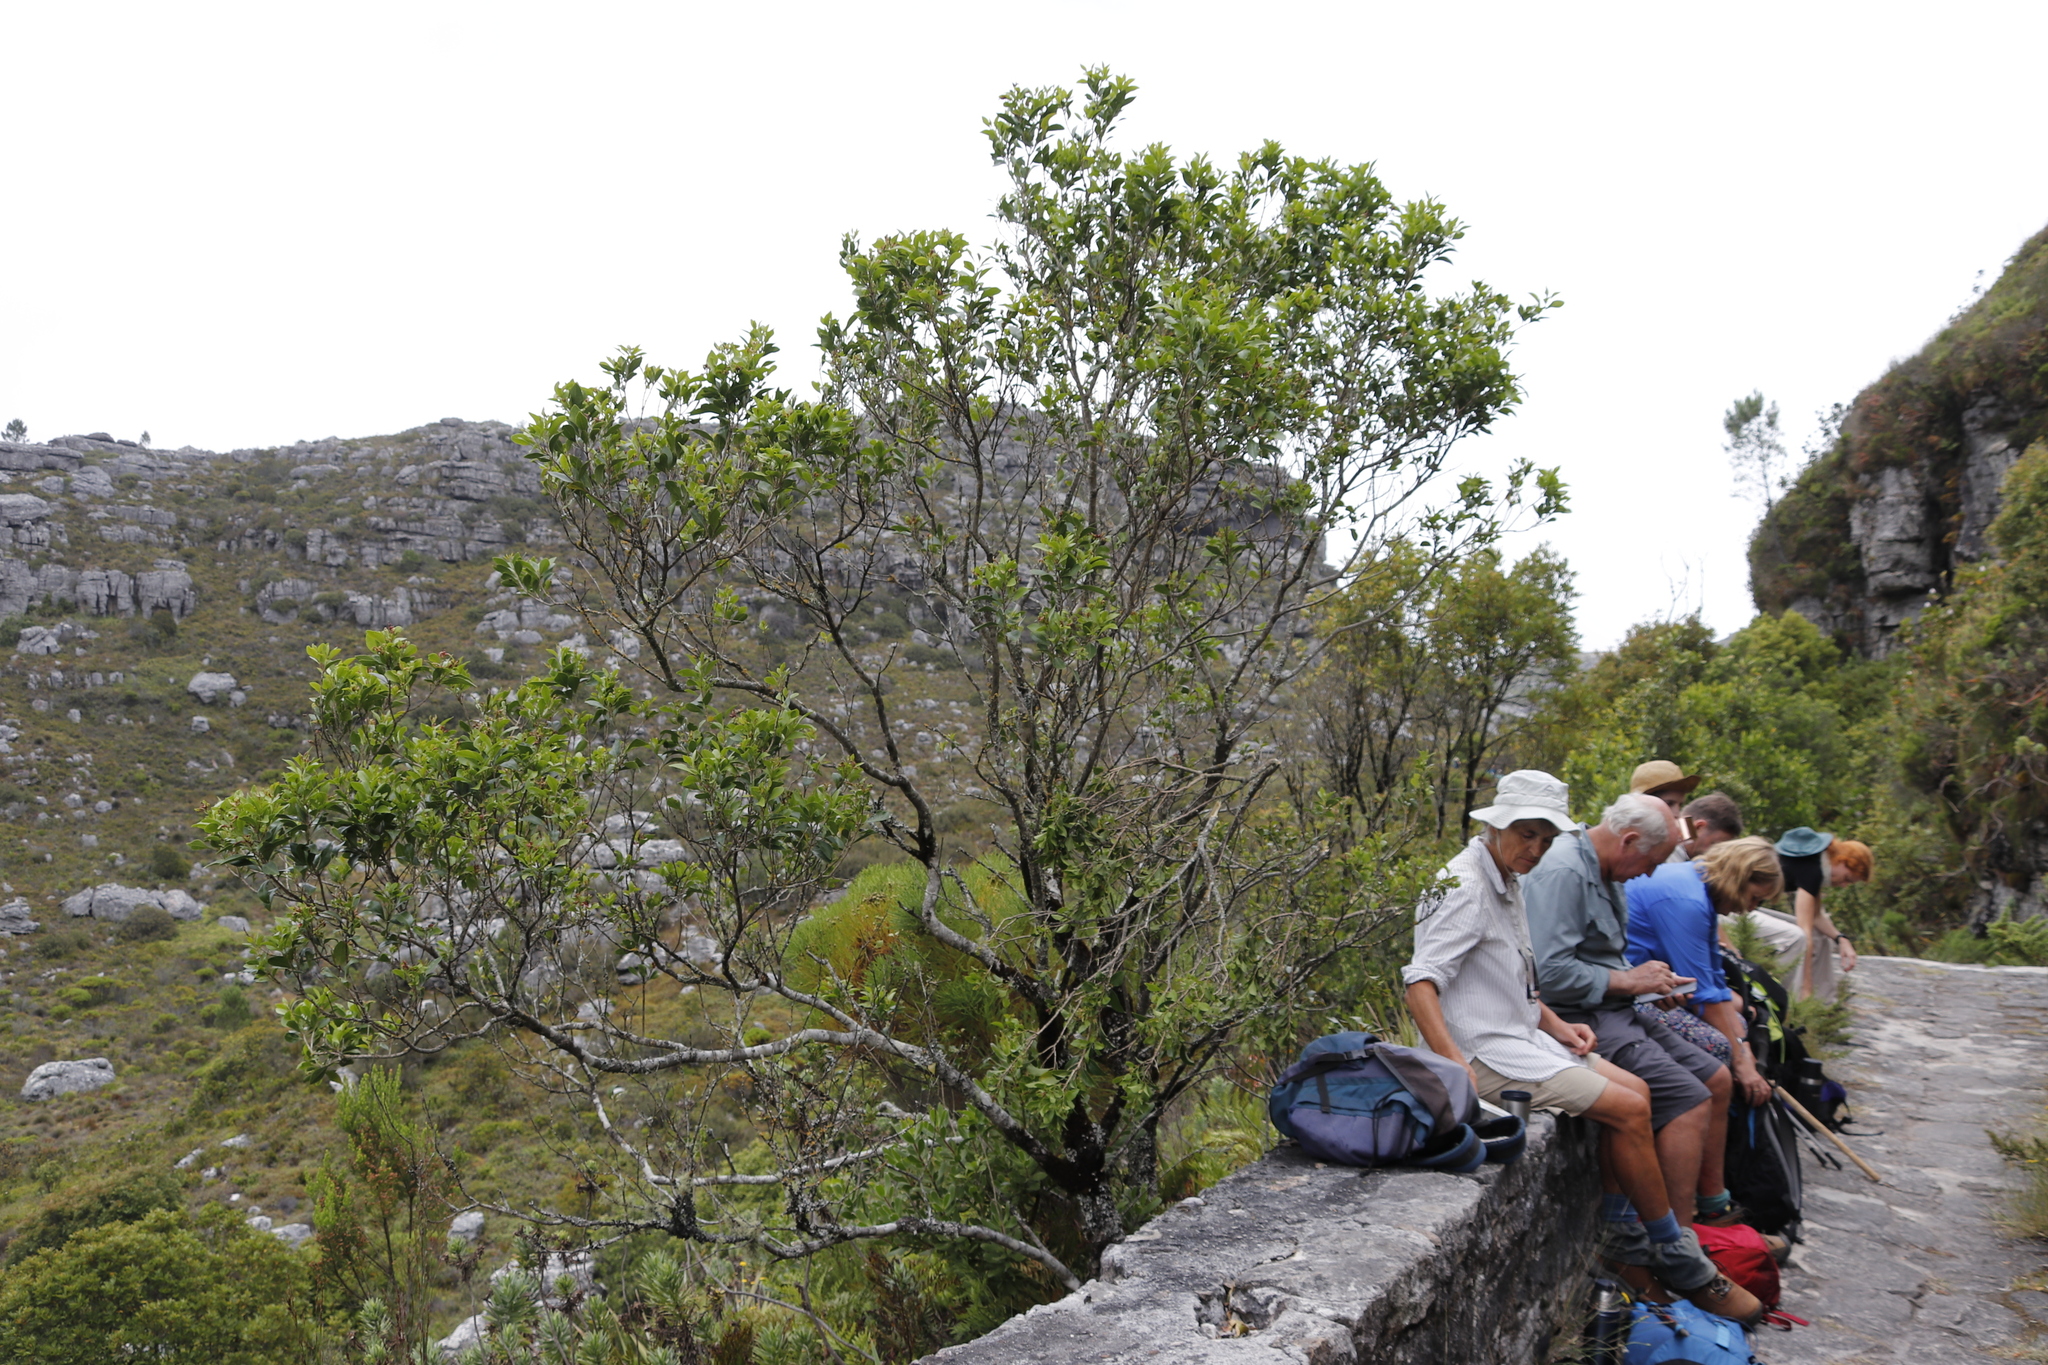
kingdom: Plantae
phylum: Tracheophyta
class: Magnoliopsida
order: Myrtales
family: Penaeaceae
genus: Olinia
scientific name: Olinia ventosa
